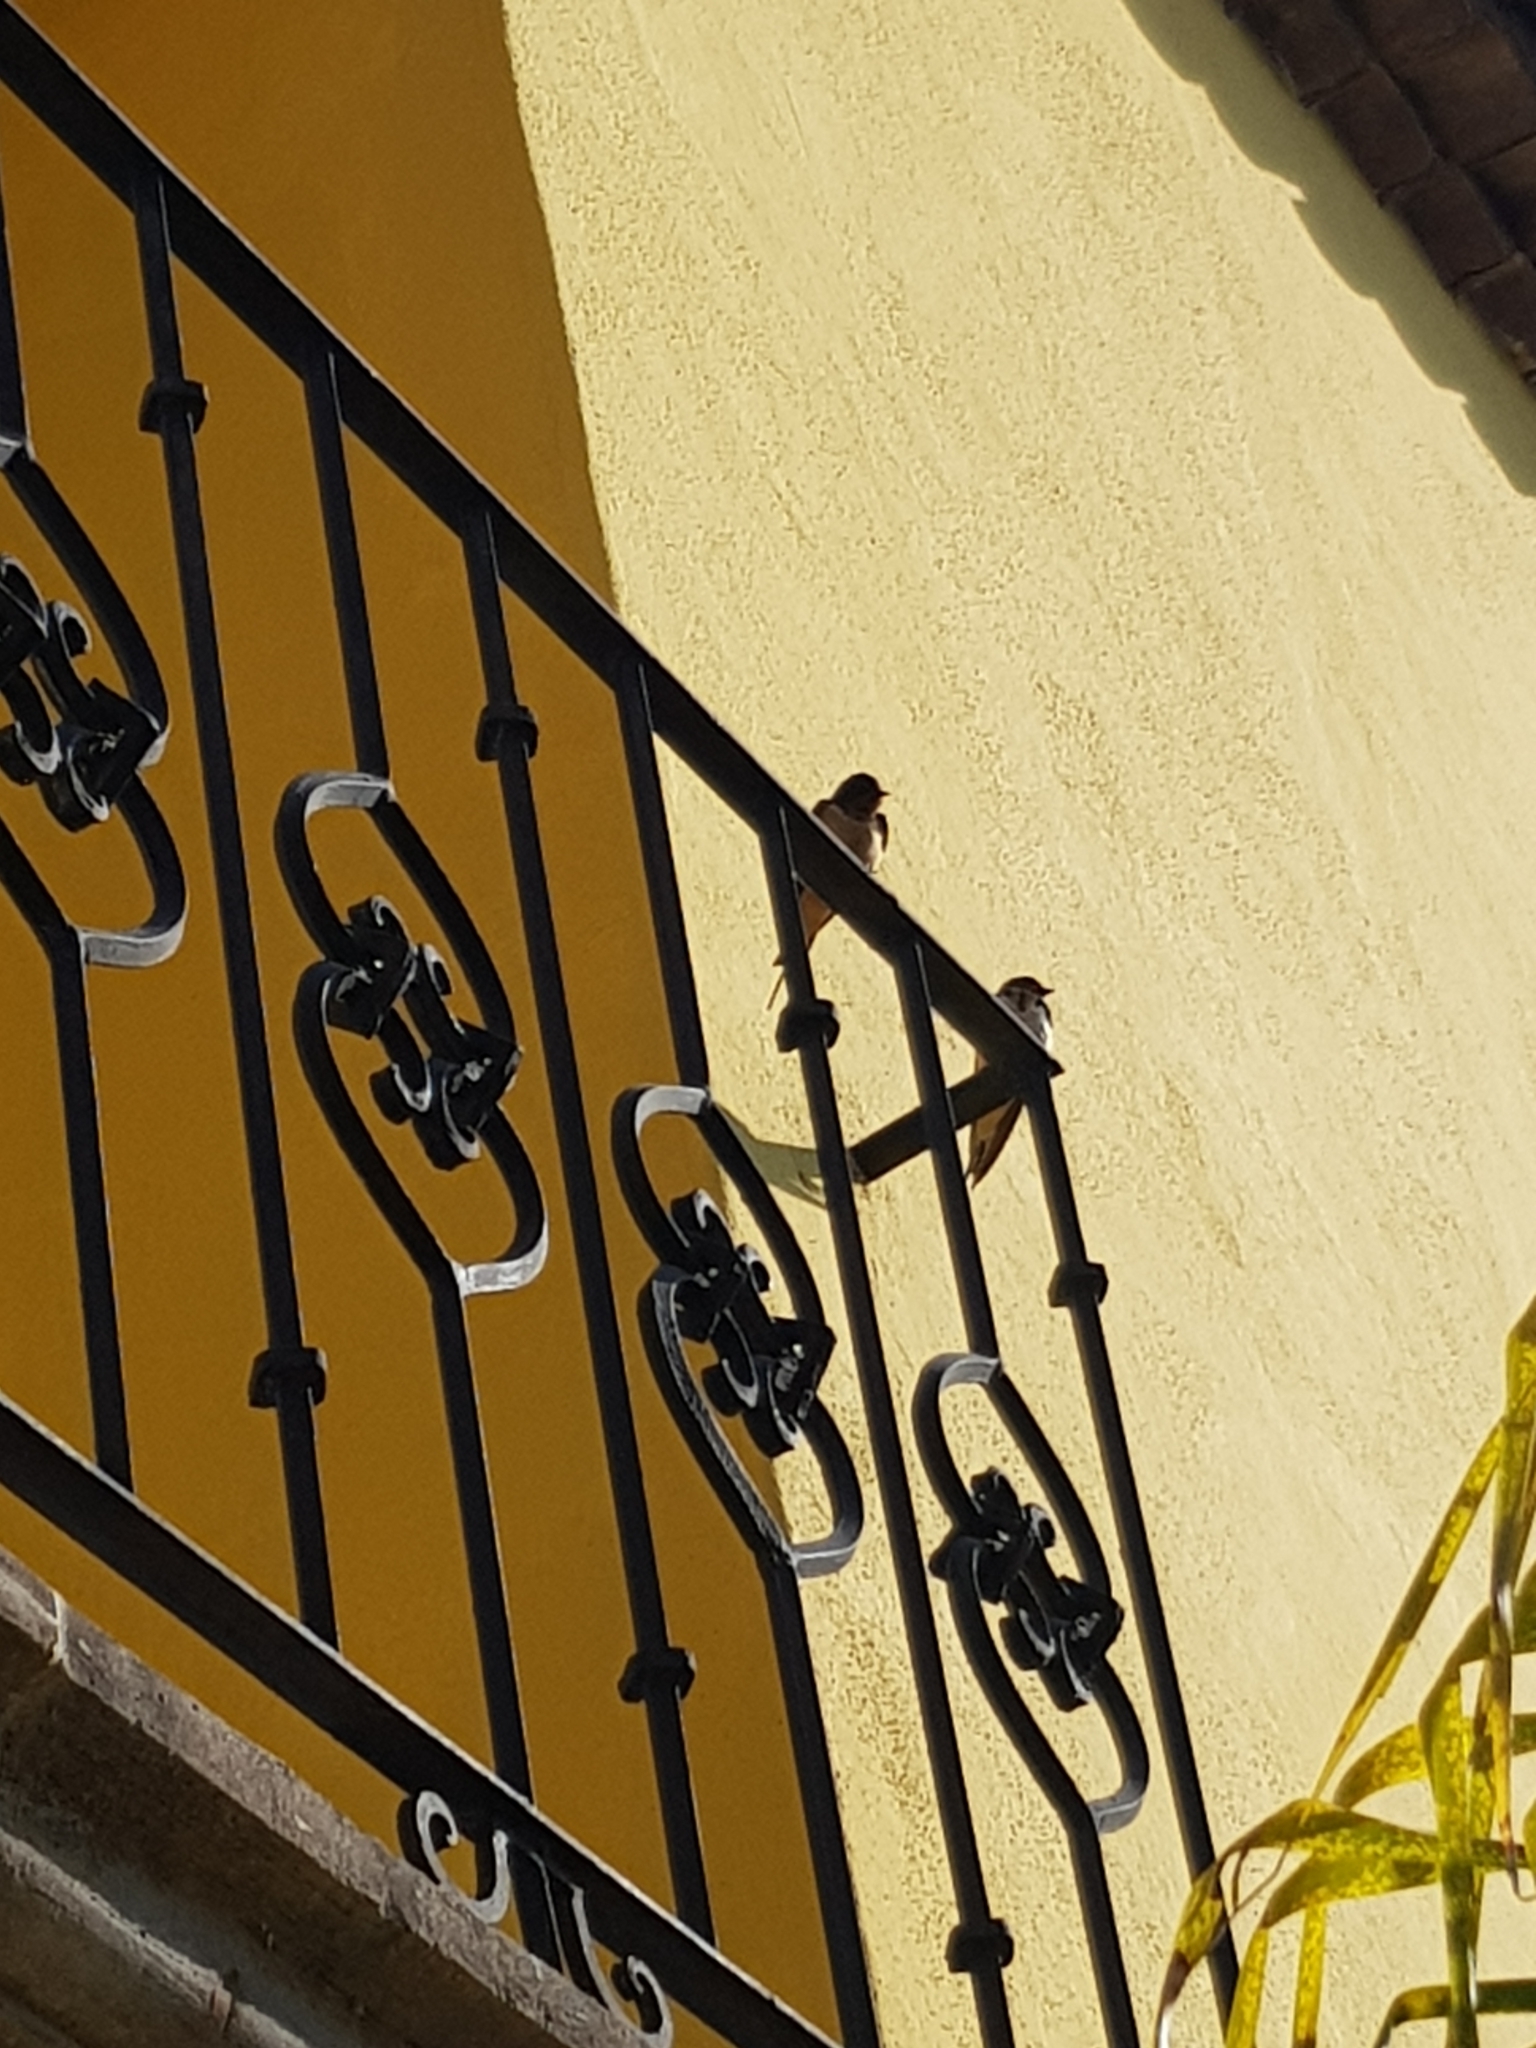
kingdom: Animalia
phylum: Chordata
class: Aves
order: Passeriformes
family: Hirundinidae
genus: Hirundo
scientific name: Hirundo rustica
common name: Barn swallow
